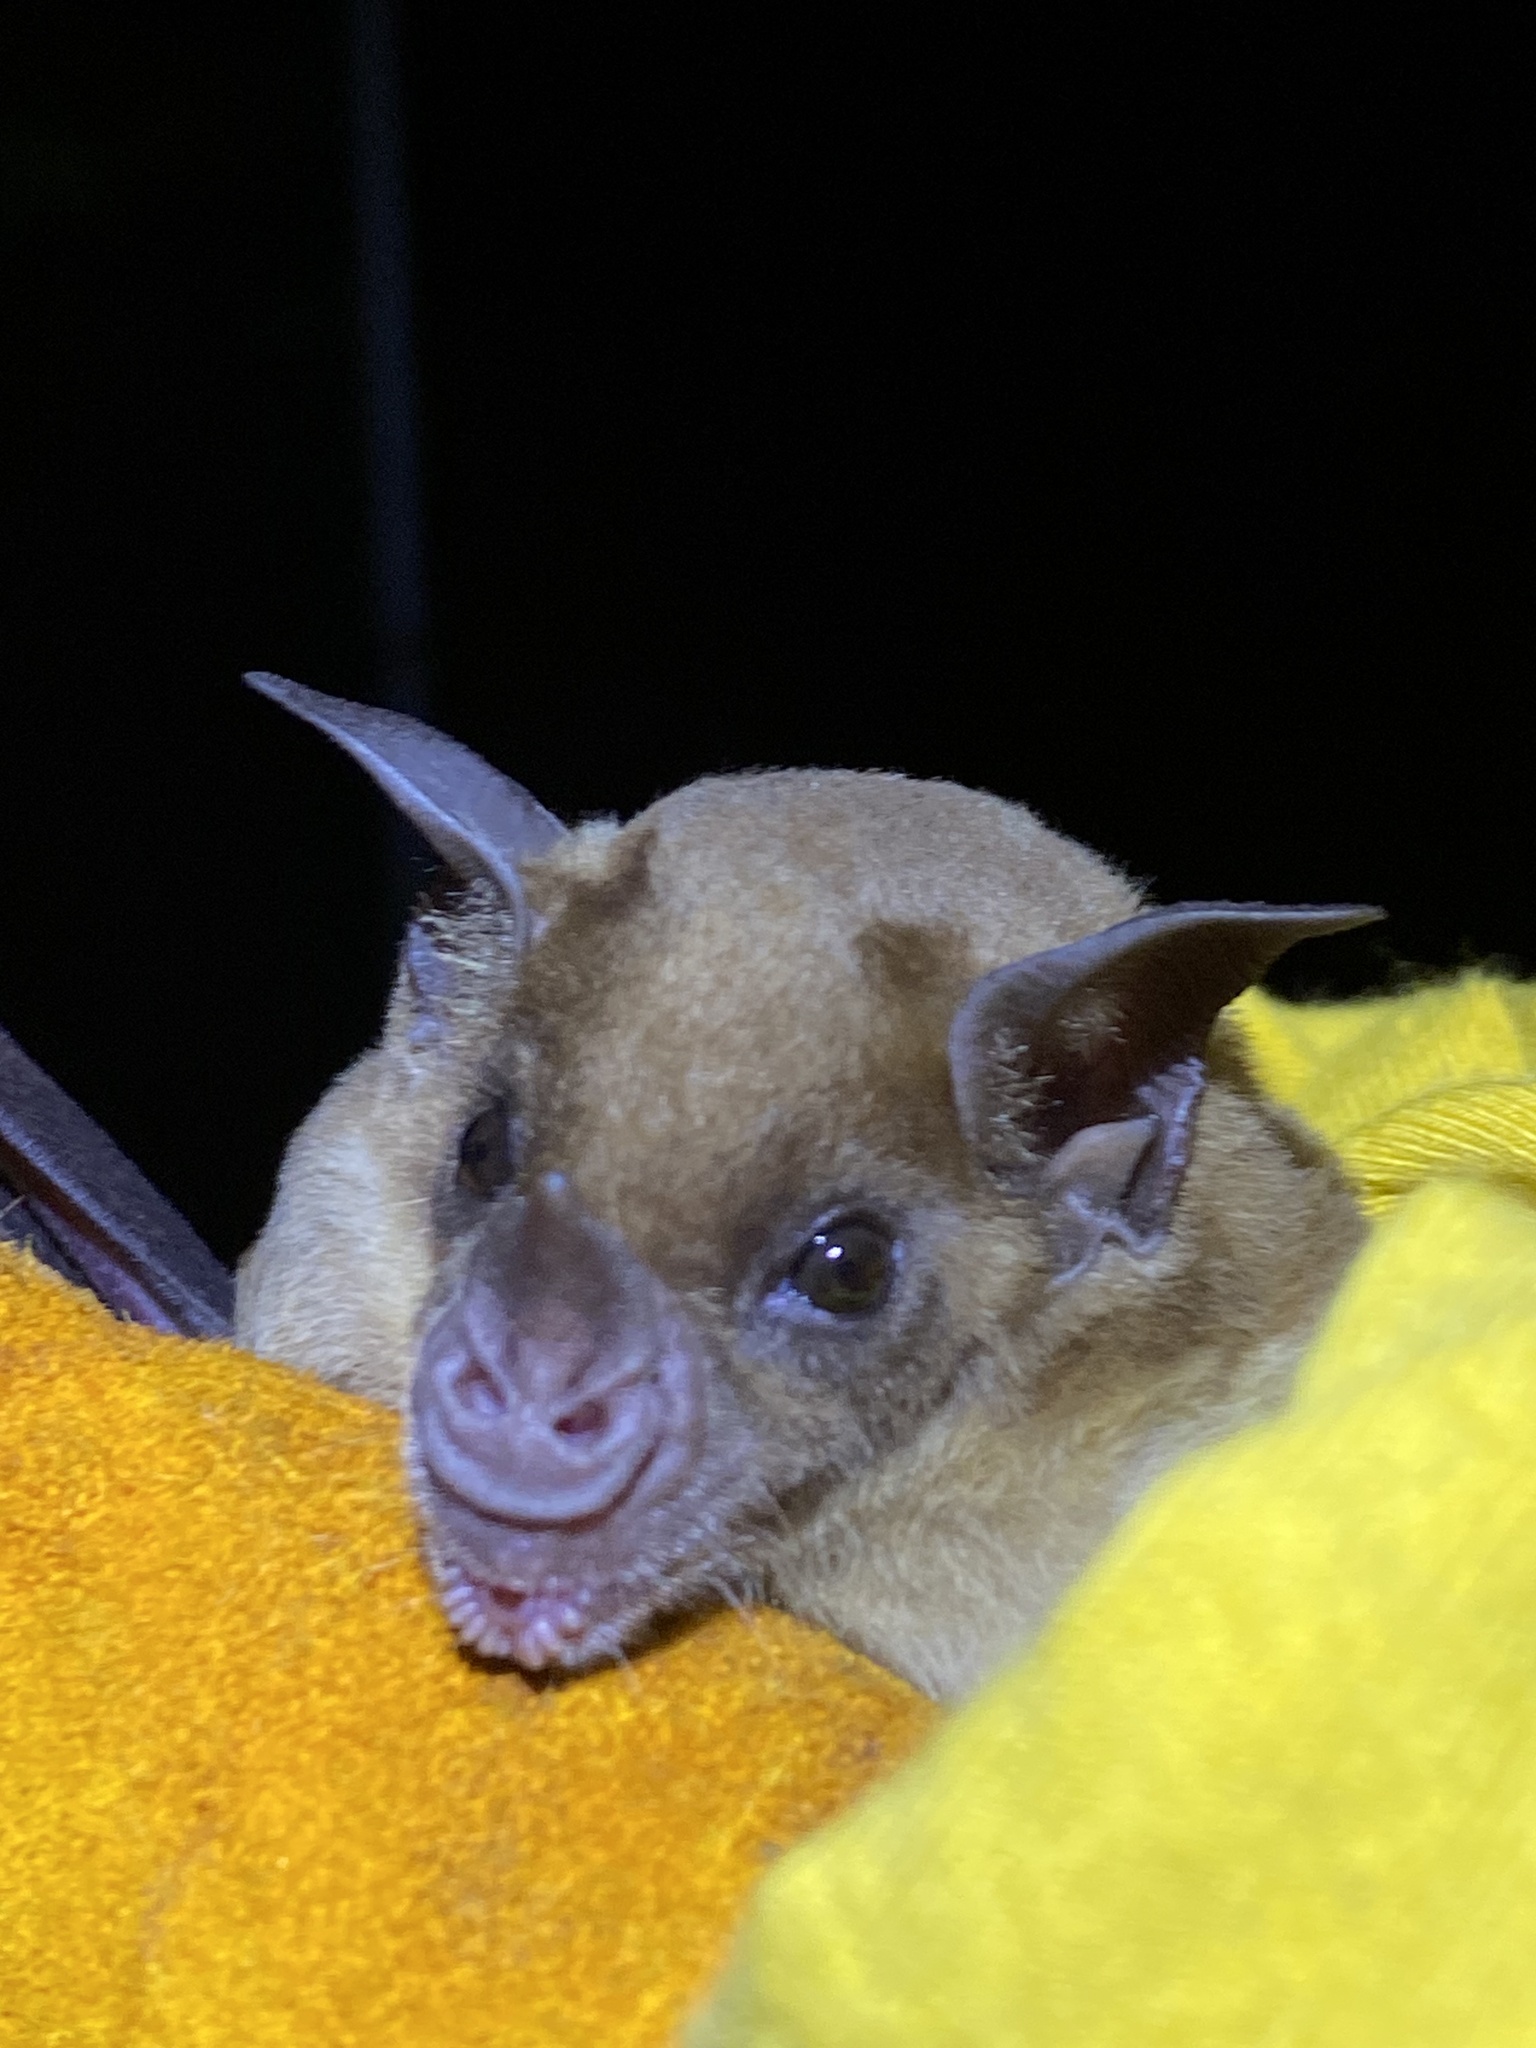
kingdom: Animalia
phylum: Chordata
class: Mammalia
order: Chiroptera
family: Phyllostomidae
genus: Phyllostomus
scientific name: Phyllostomus discolor
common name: Pale spear-nosed bat
